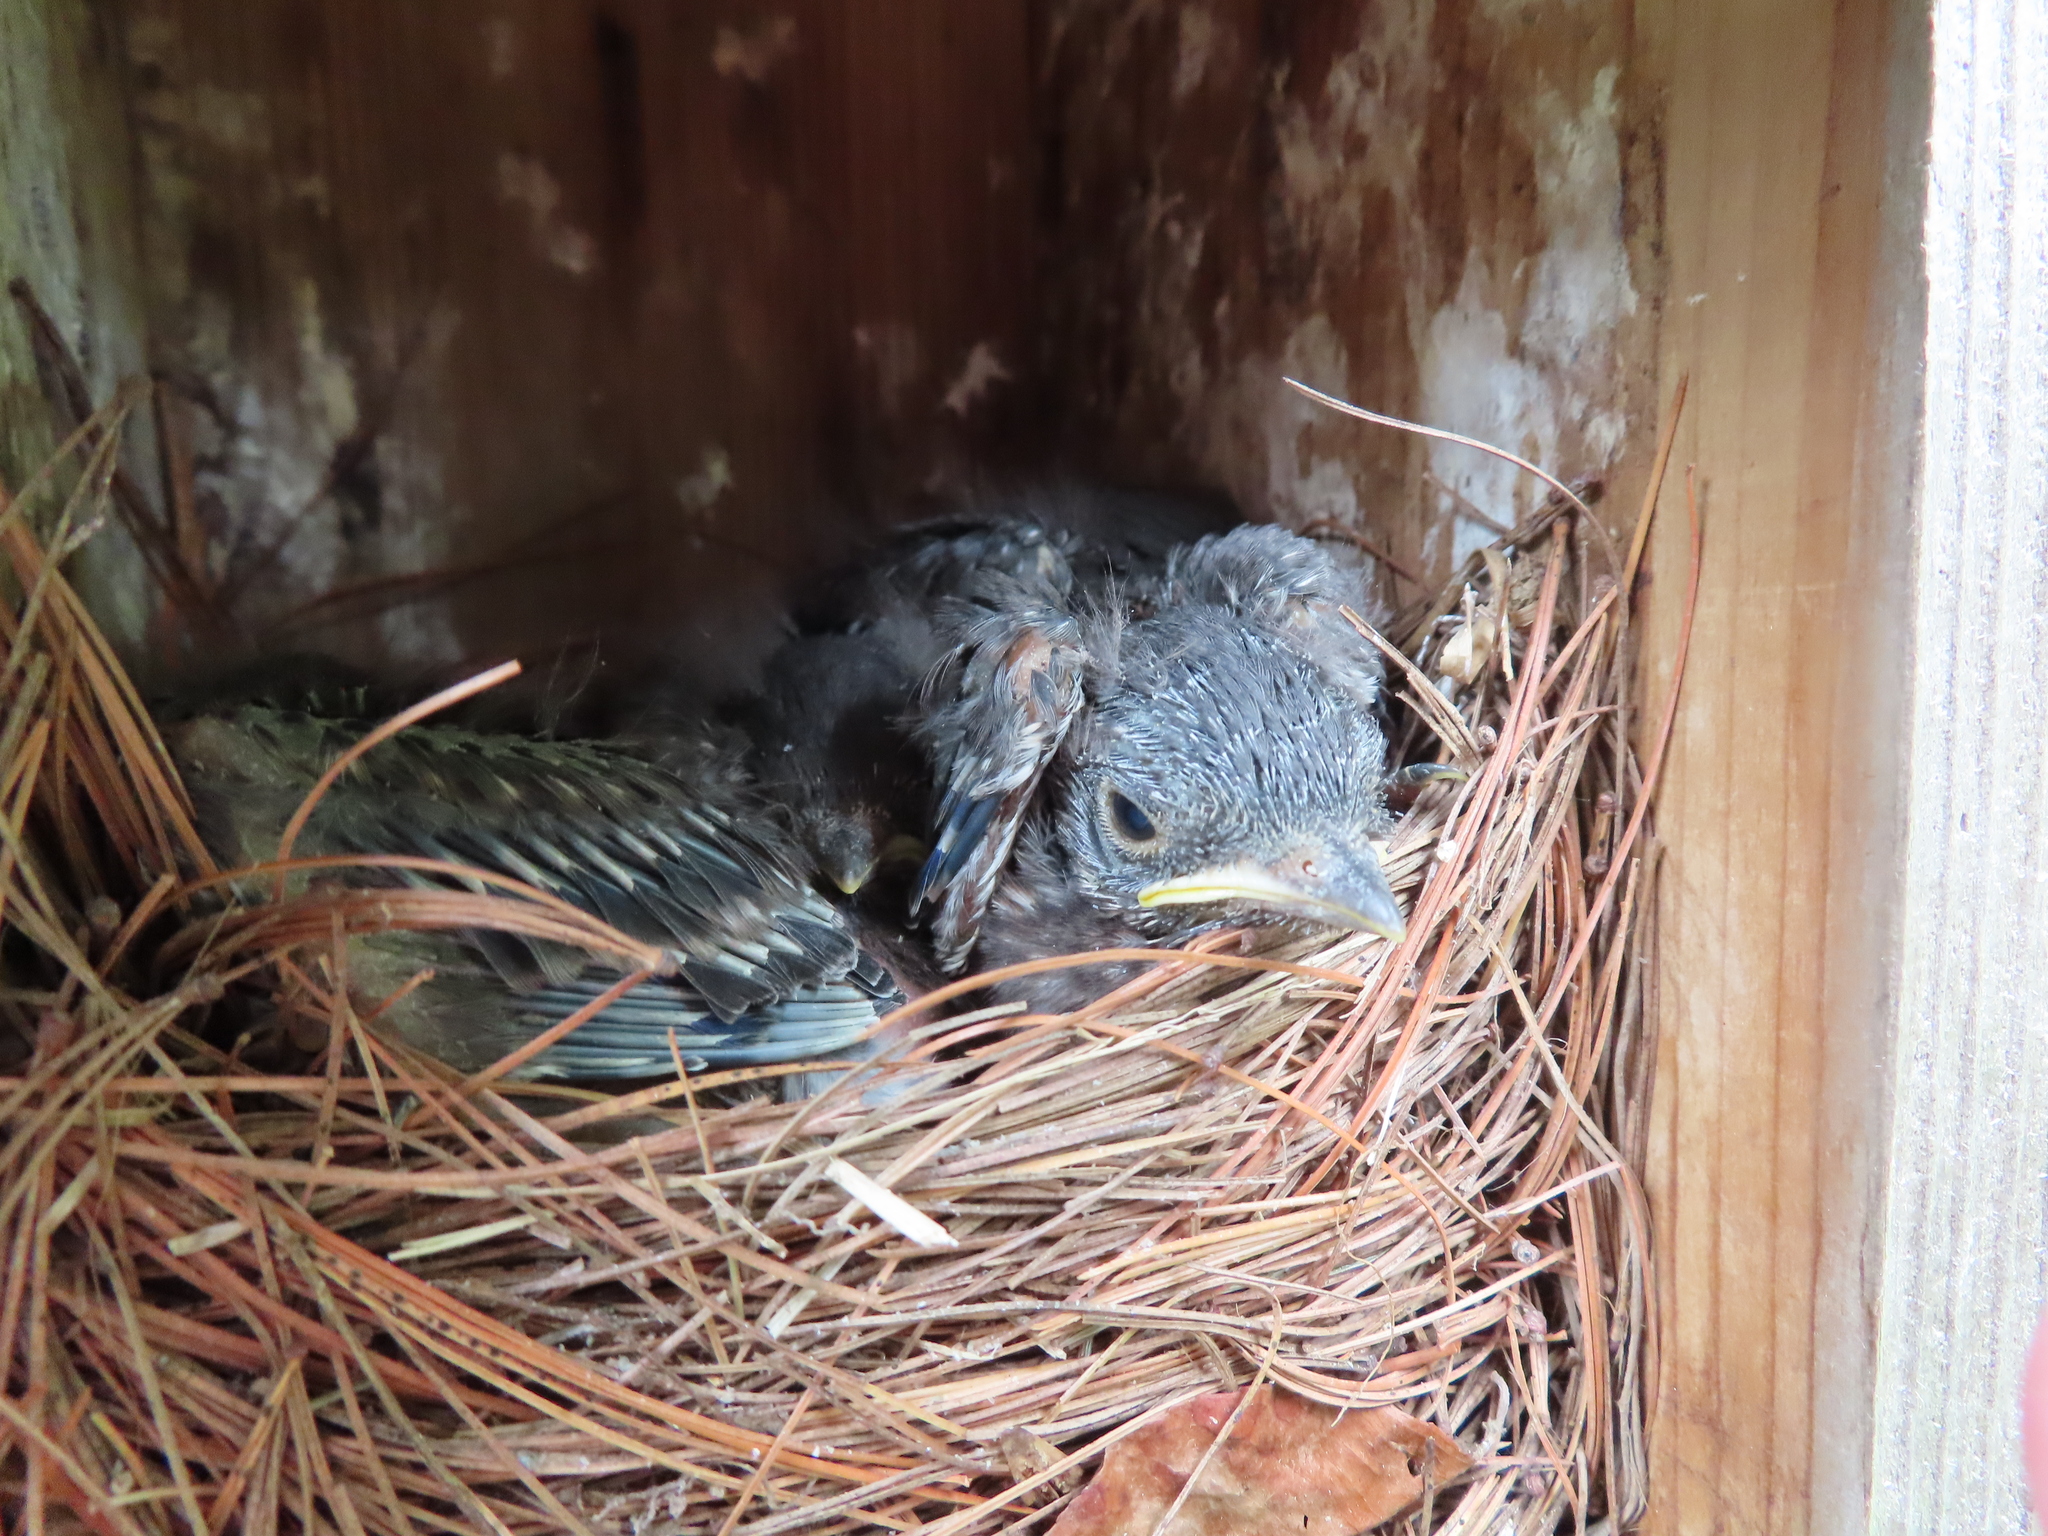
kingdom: Animalia
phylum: Chordata
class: Aves
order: Passeriformes
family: Turdidae
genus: Sialia
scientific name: Sialia sialis
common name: Eastern bluebird
